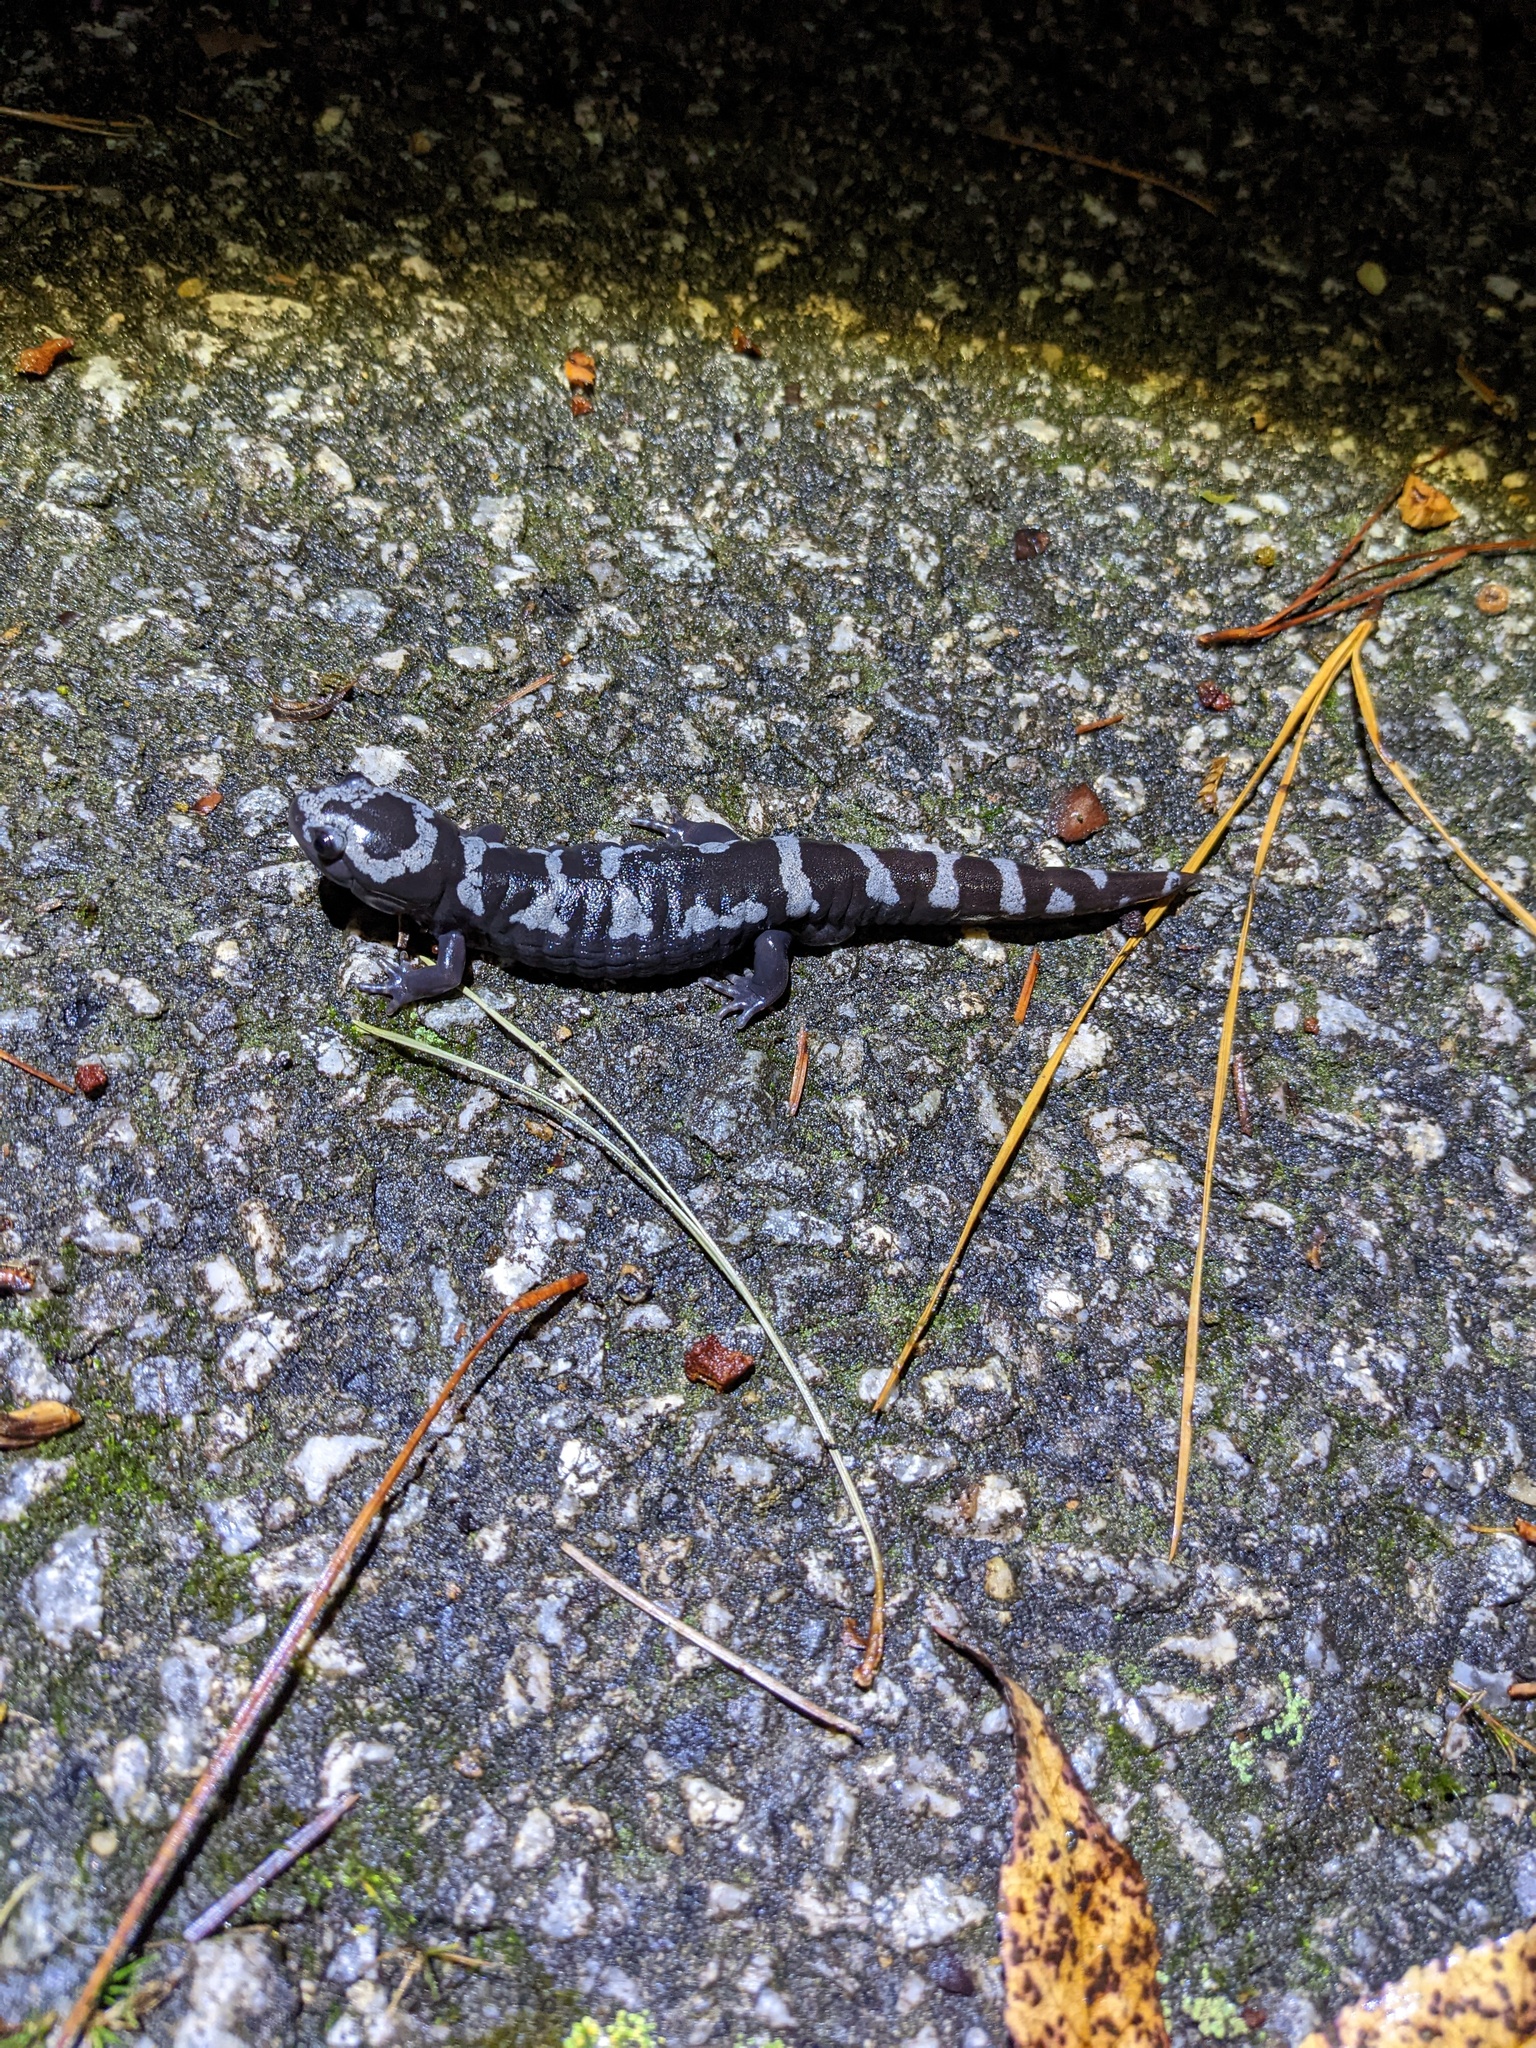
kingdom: Animalia
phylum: Chordata
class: Amphibia
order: Caudata
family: Ambystomatidae
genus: Ambystoma
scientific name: Ambystoma opacum
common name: Marbled salamander
